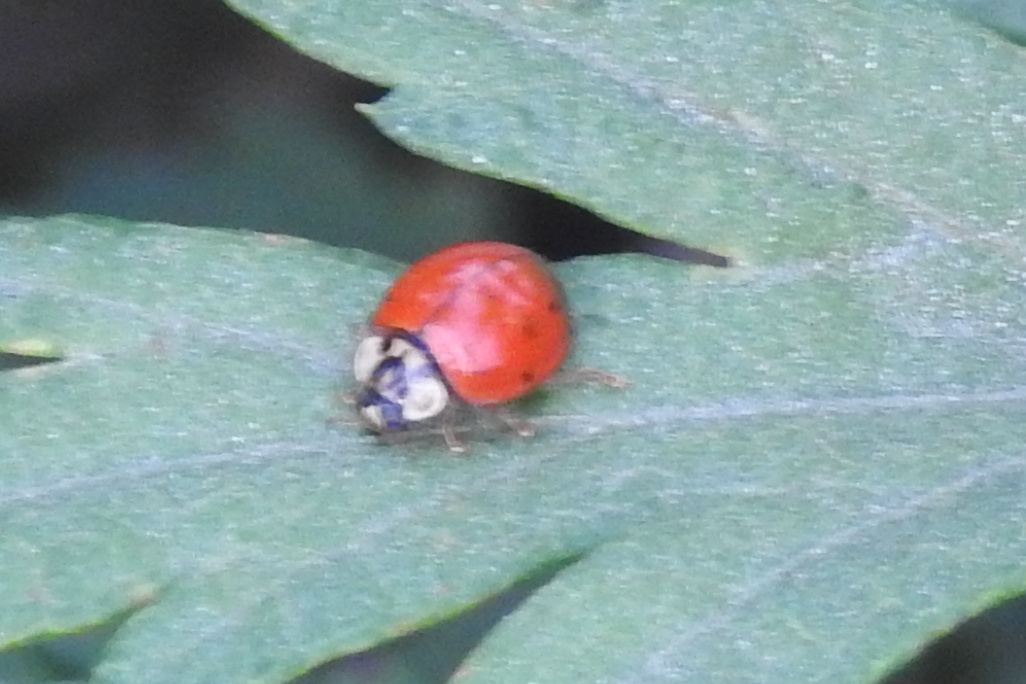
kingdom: Animalia
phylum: Arthropoda
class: Insecta
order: Coleoptera
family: Coccinellidae
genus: Harmonia
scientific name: Harmonia axyridis
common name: Harlequin ladybird
